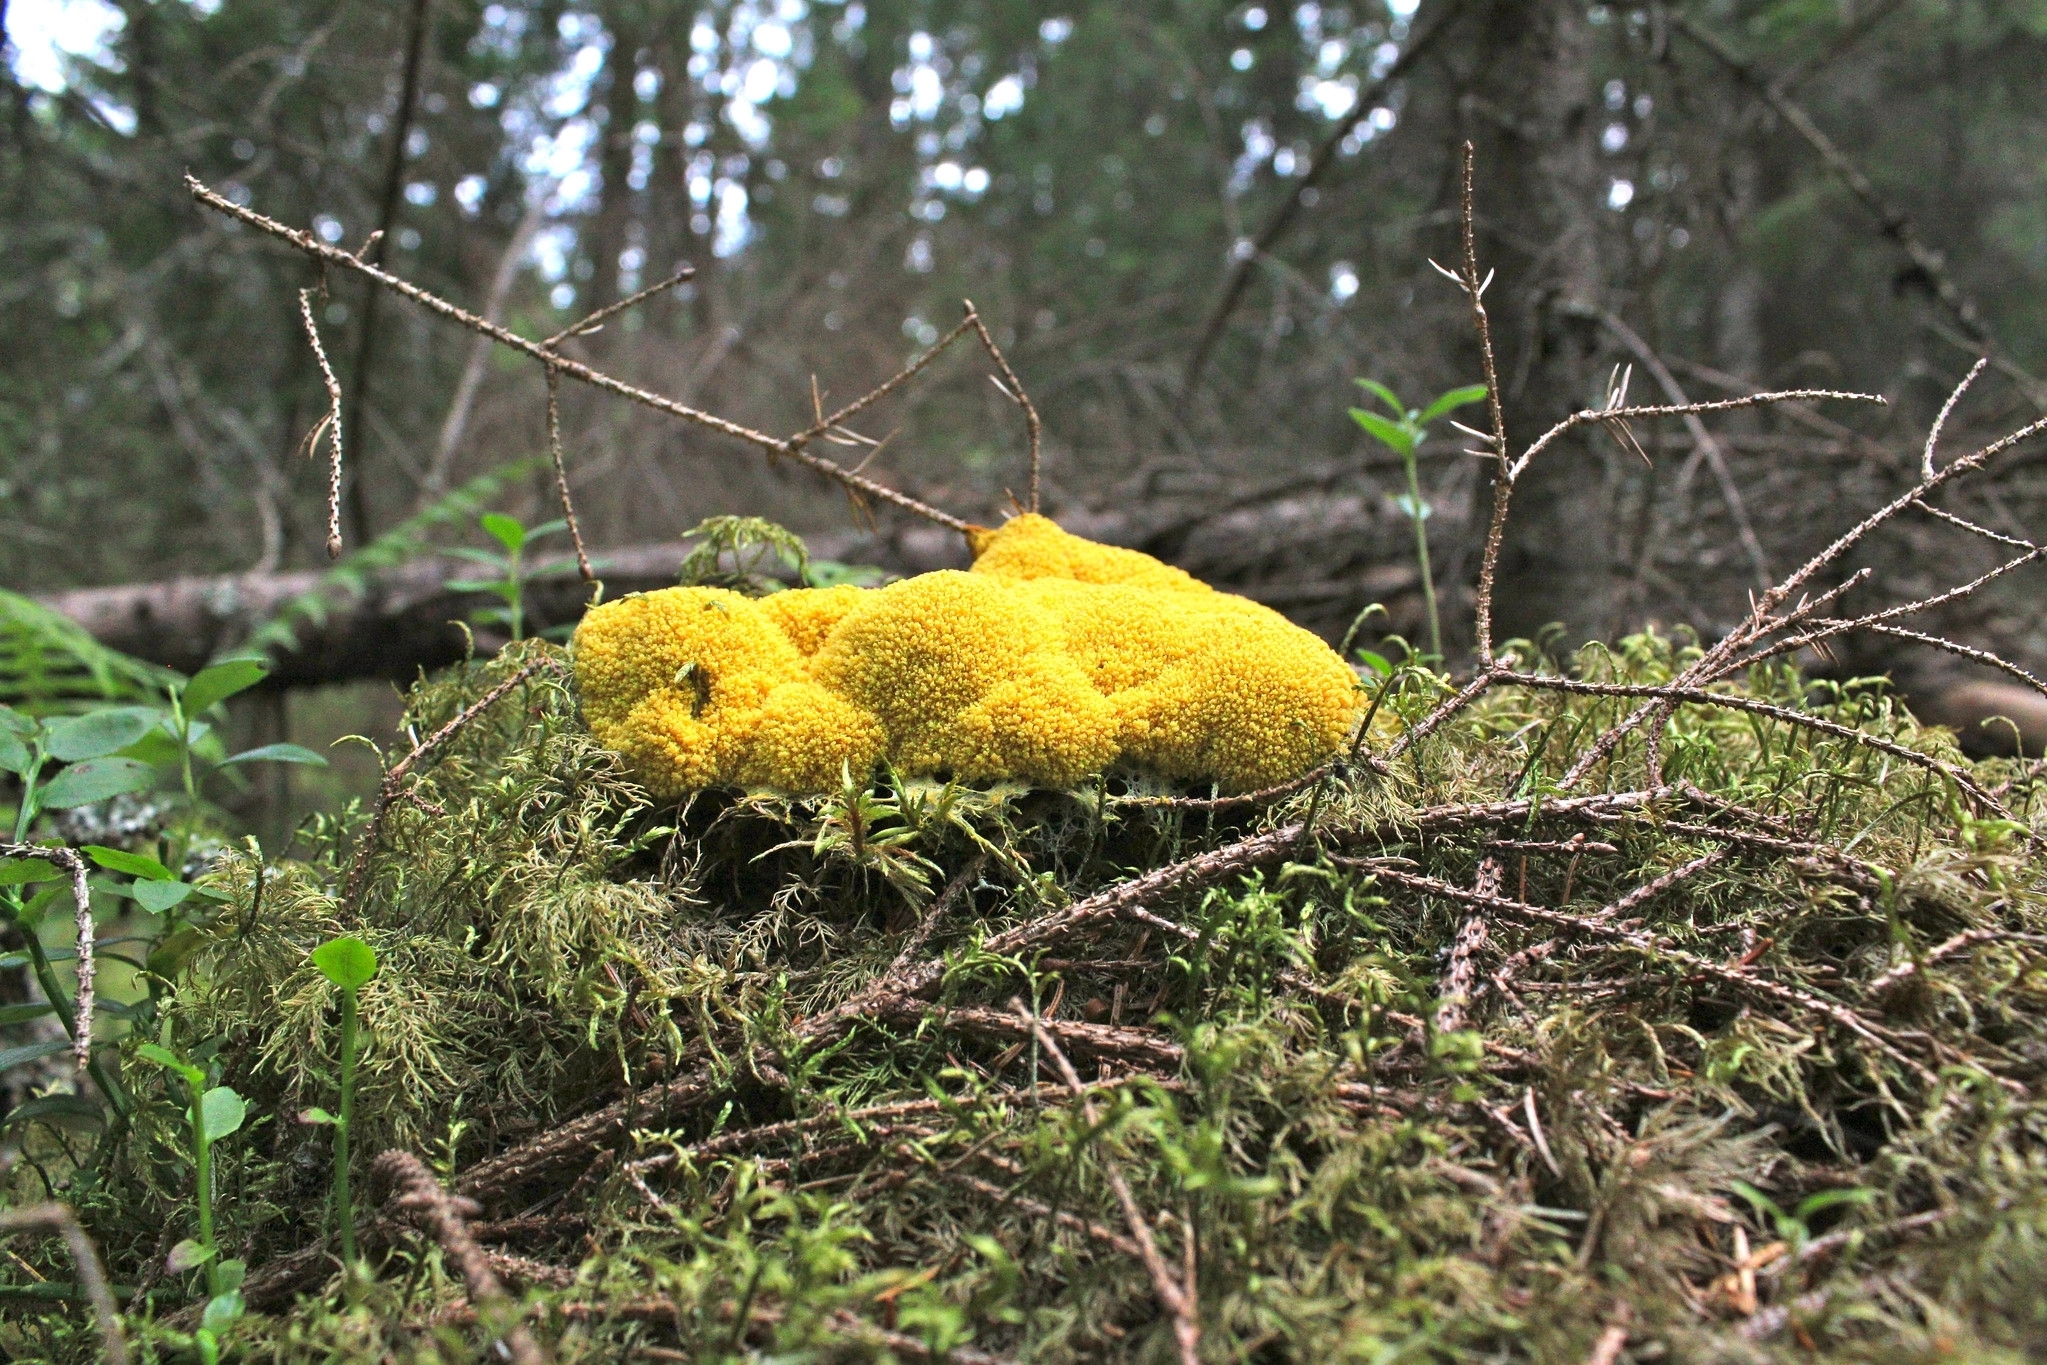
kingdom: Protozoa
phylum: Mycetozoa
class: Myxomycetes
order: Physarales
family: Physaraceae
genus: Fuligo
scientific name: Fuligo septica
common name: Dog vomit slime mold
